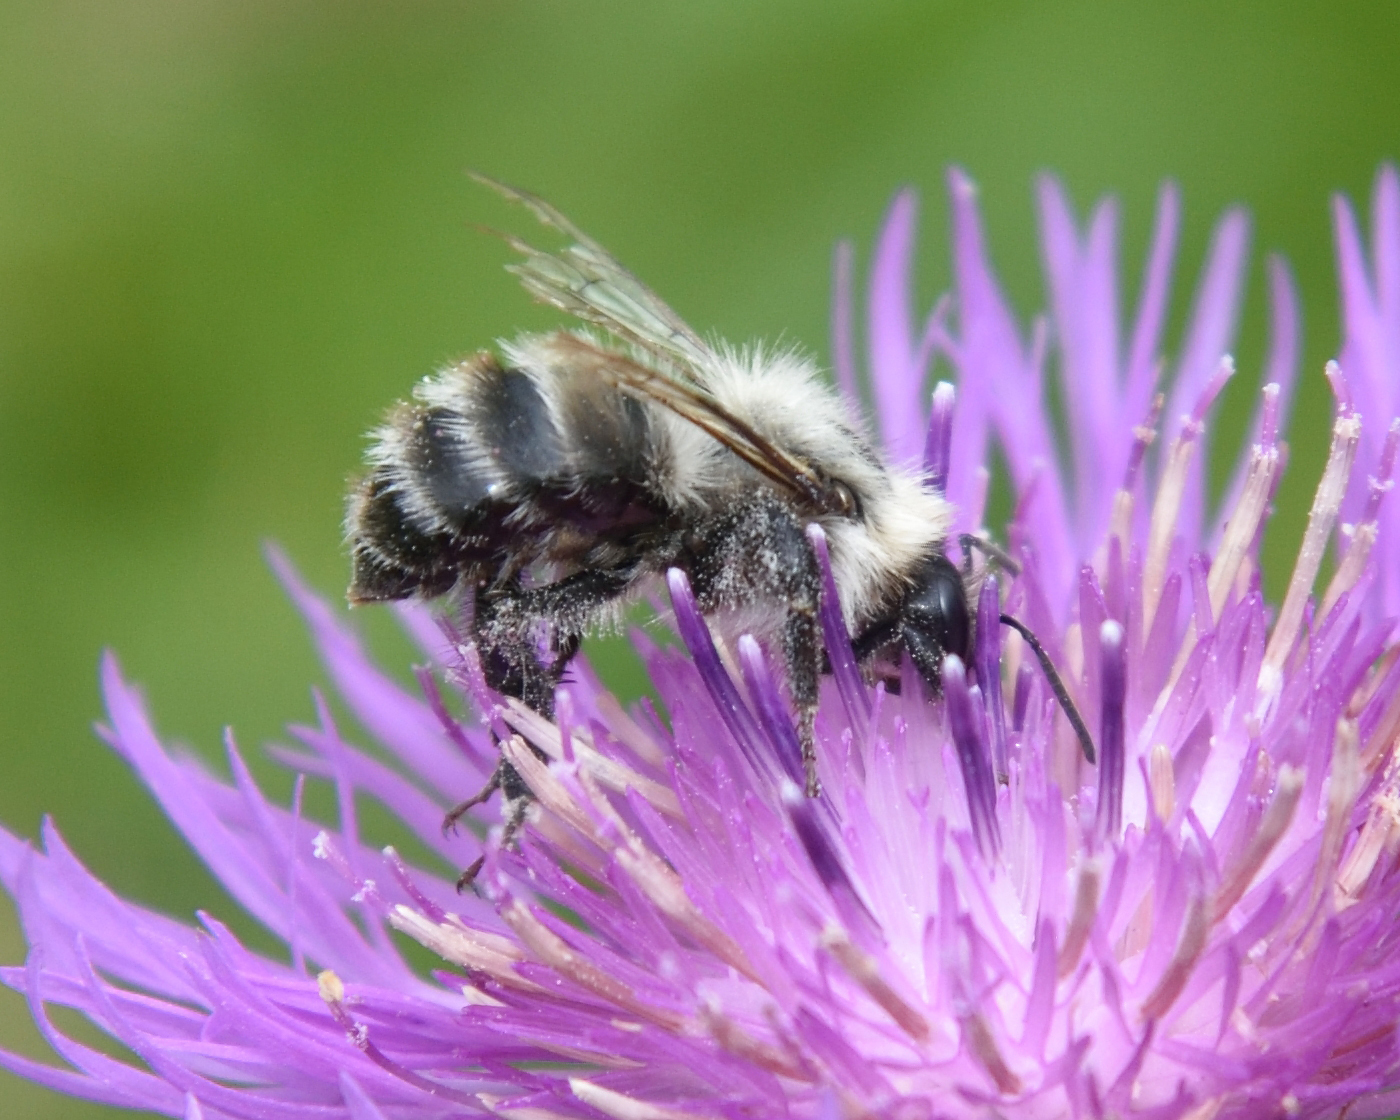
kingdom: Animalia
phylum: Arthropoda
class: Insecta
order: Hymenoptera
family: Apidae
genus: Bombus
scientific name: Bombus schrencki
